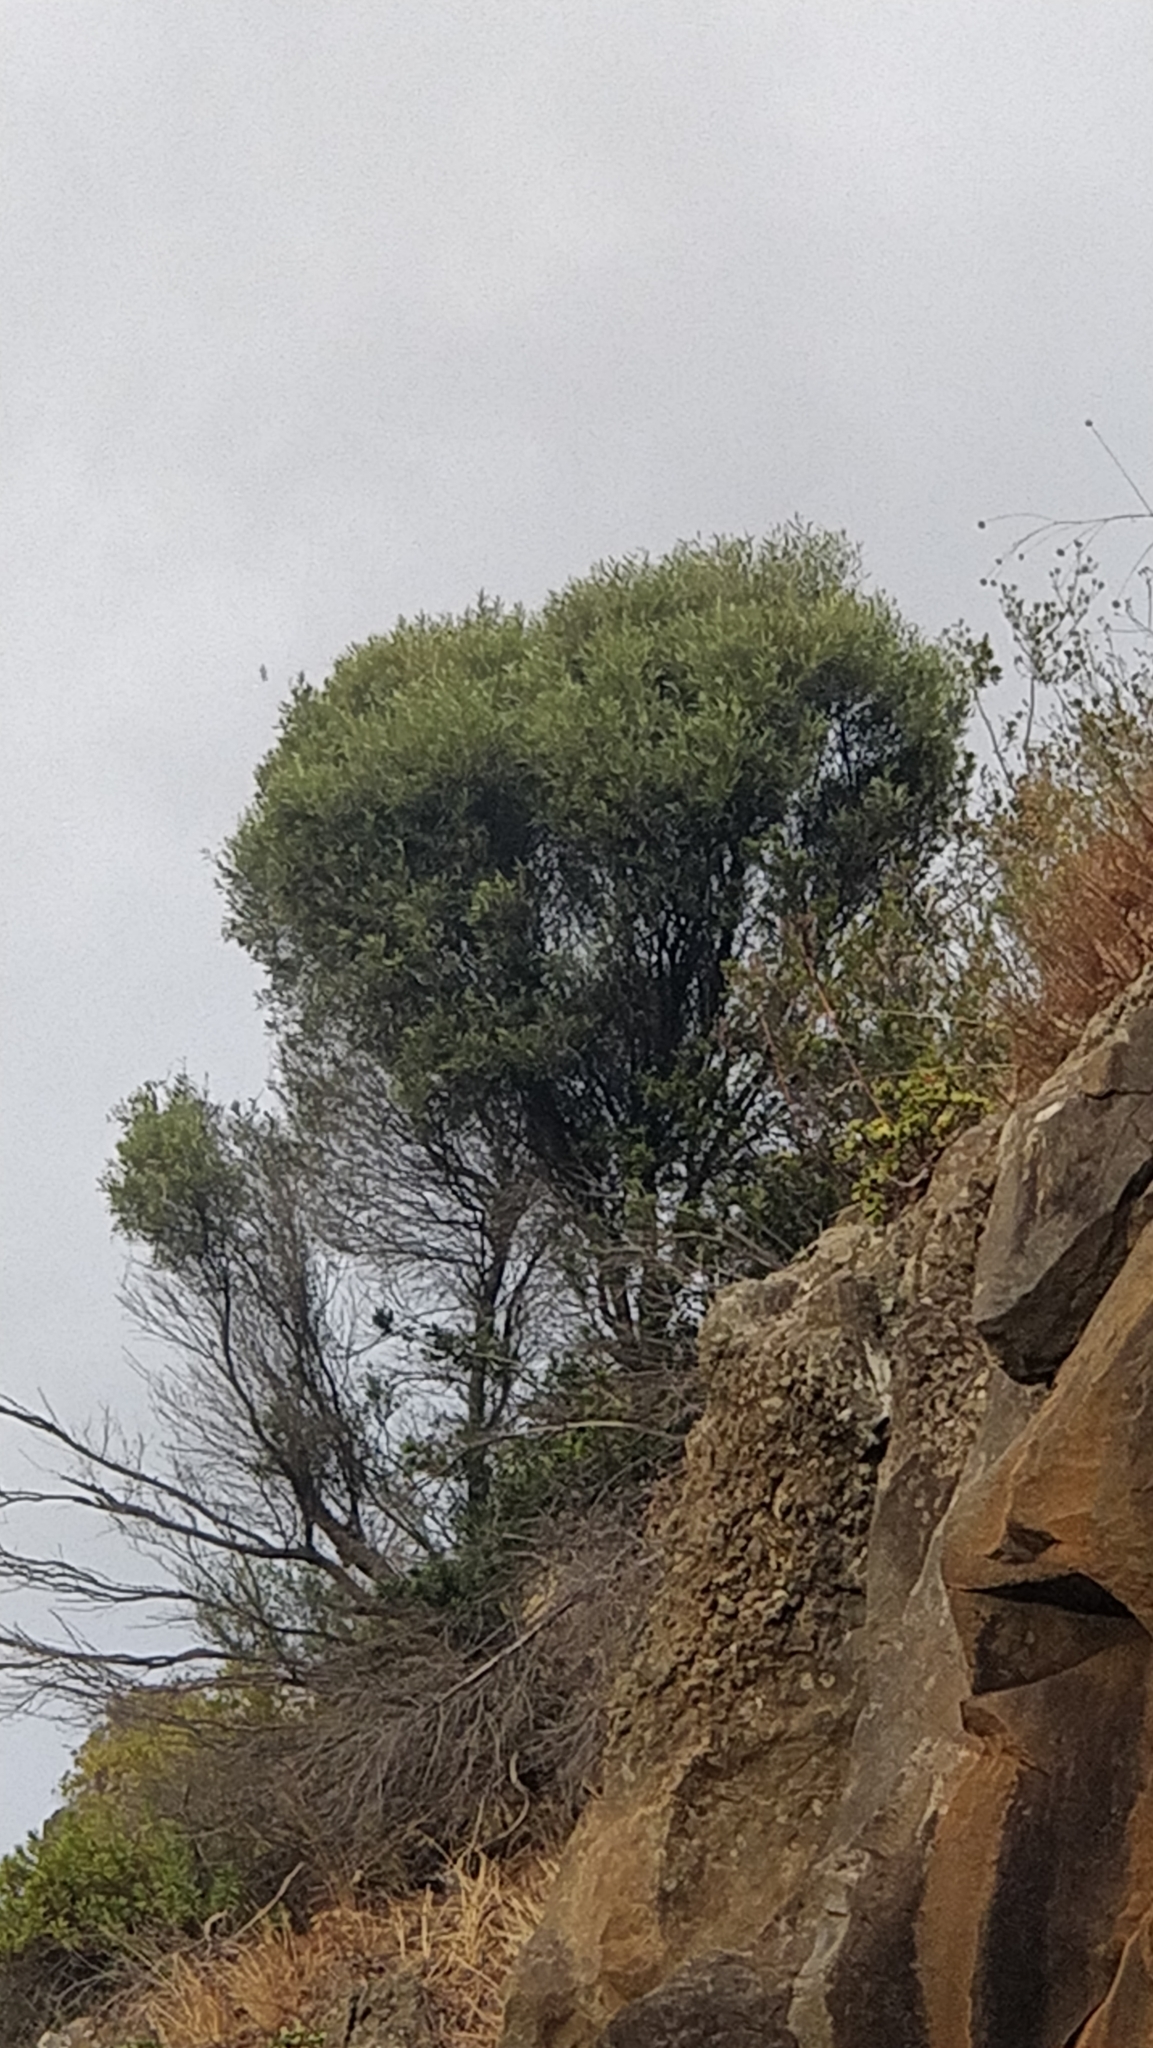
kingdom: Plantae
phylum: Tracheophyta
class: Magnoliopsida
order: Lamiales
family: Oleaceae
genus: Olea
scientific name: Olea europaea
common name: Olive
